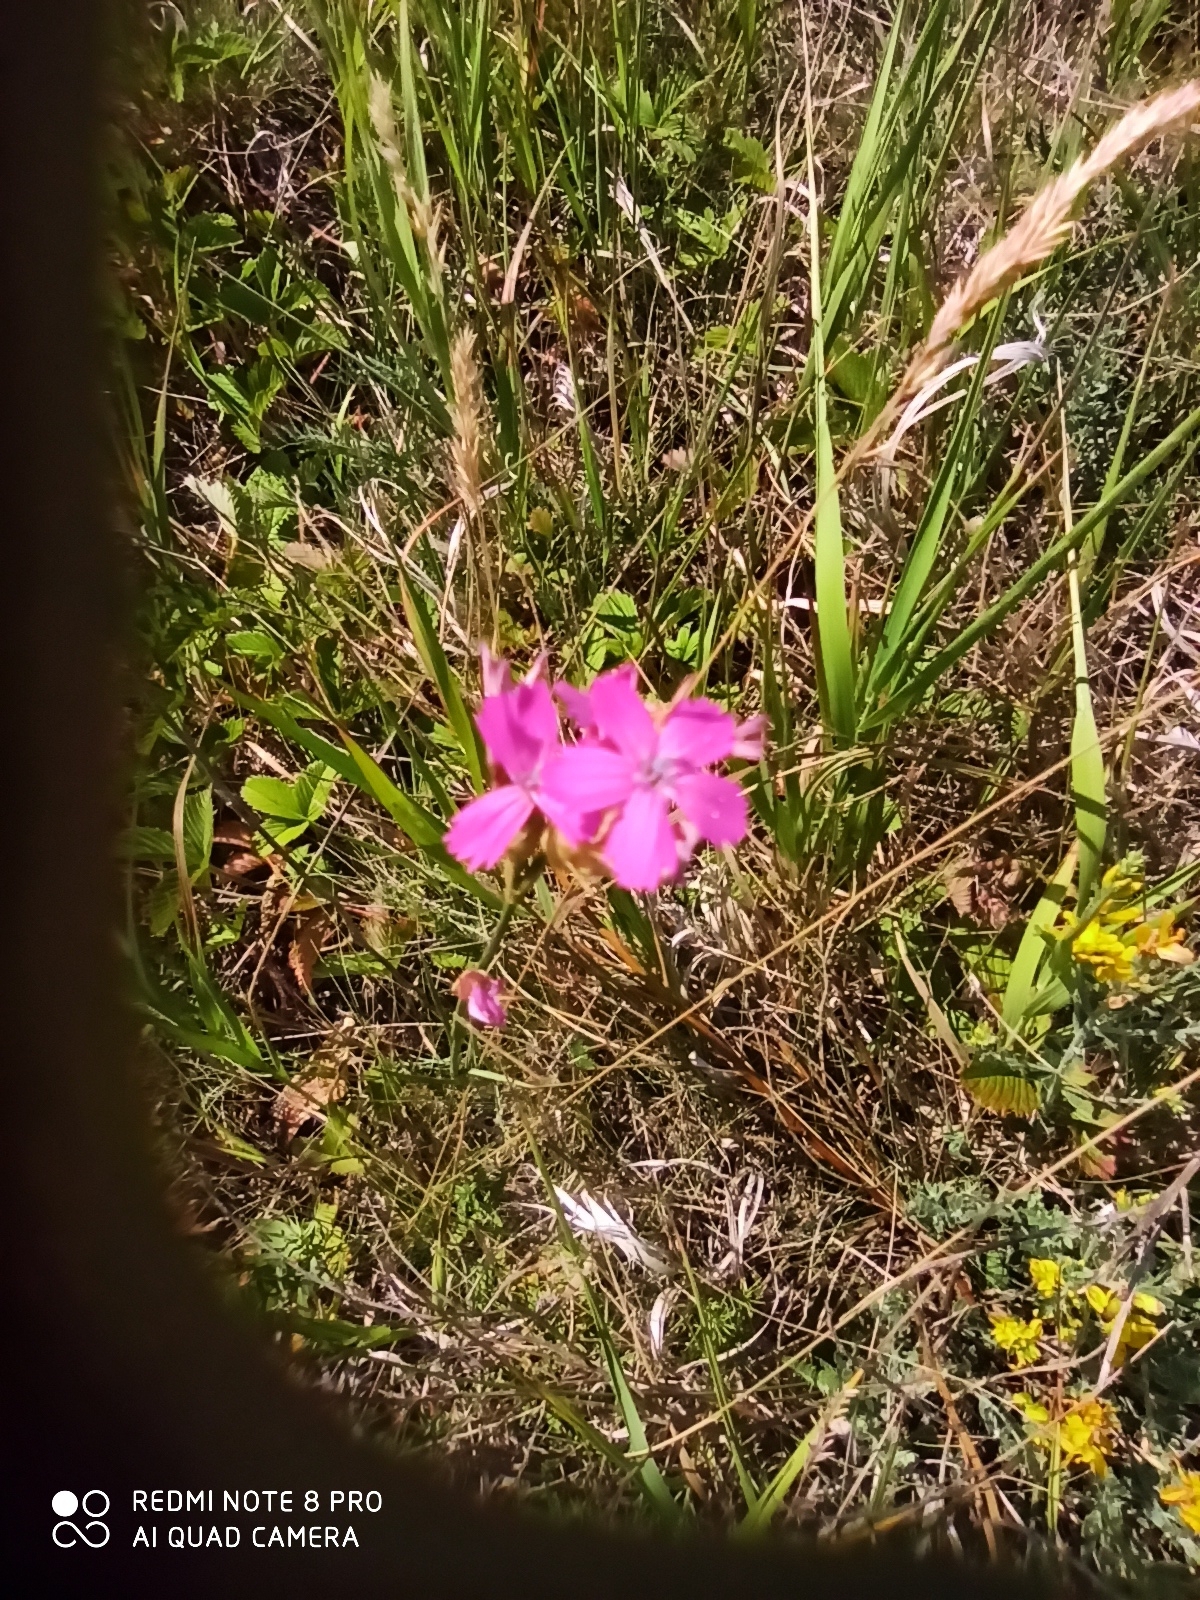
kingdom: Plantae
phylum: Tracheophyta
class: Magnoliopsida
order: Caryophyllales
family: Caryophyllaceae
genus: Dianthus
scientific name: Dianthus borbasii
